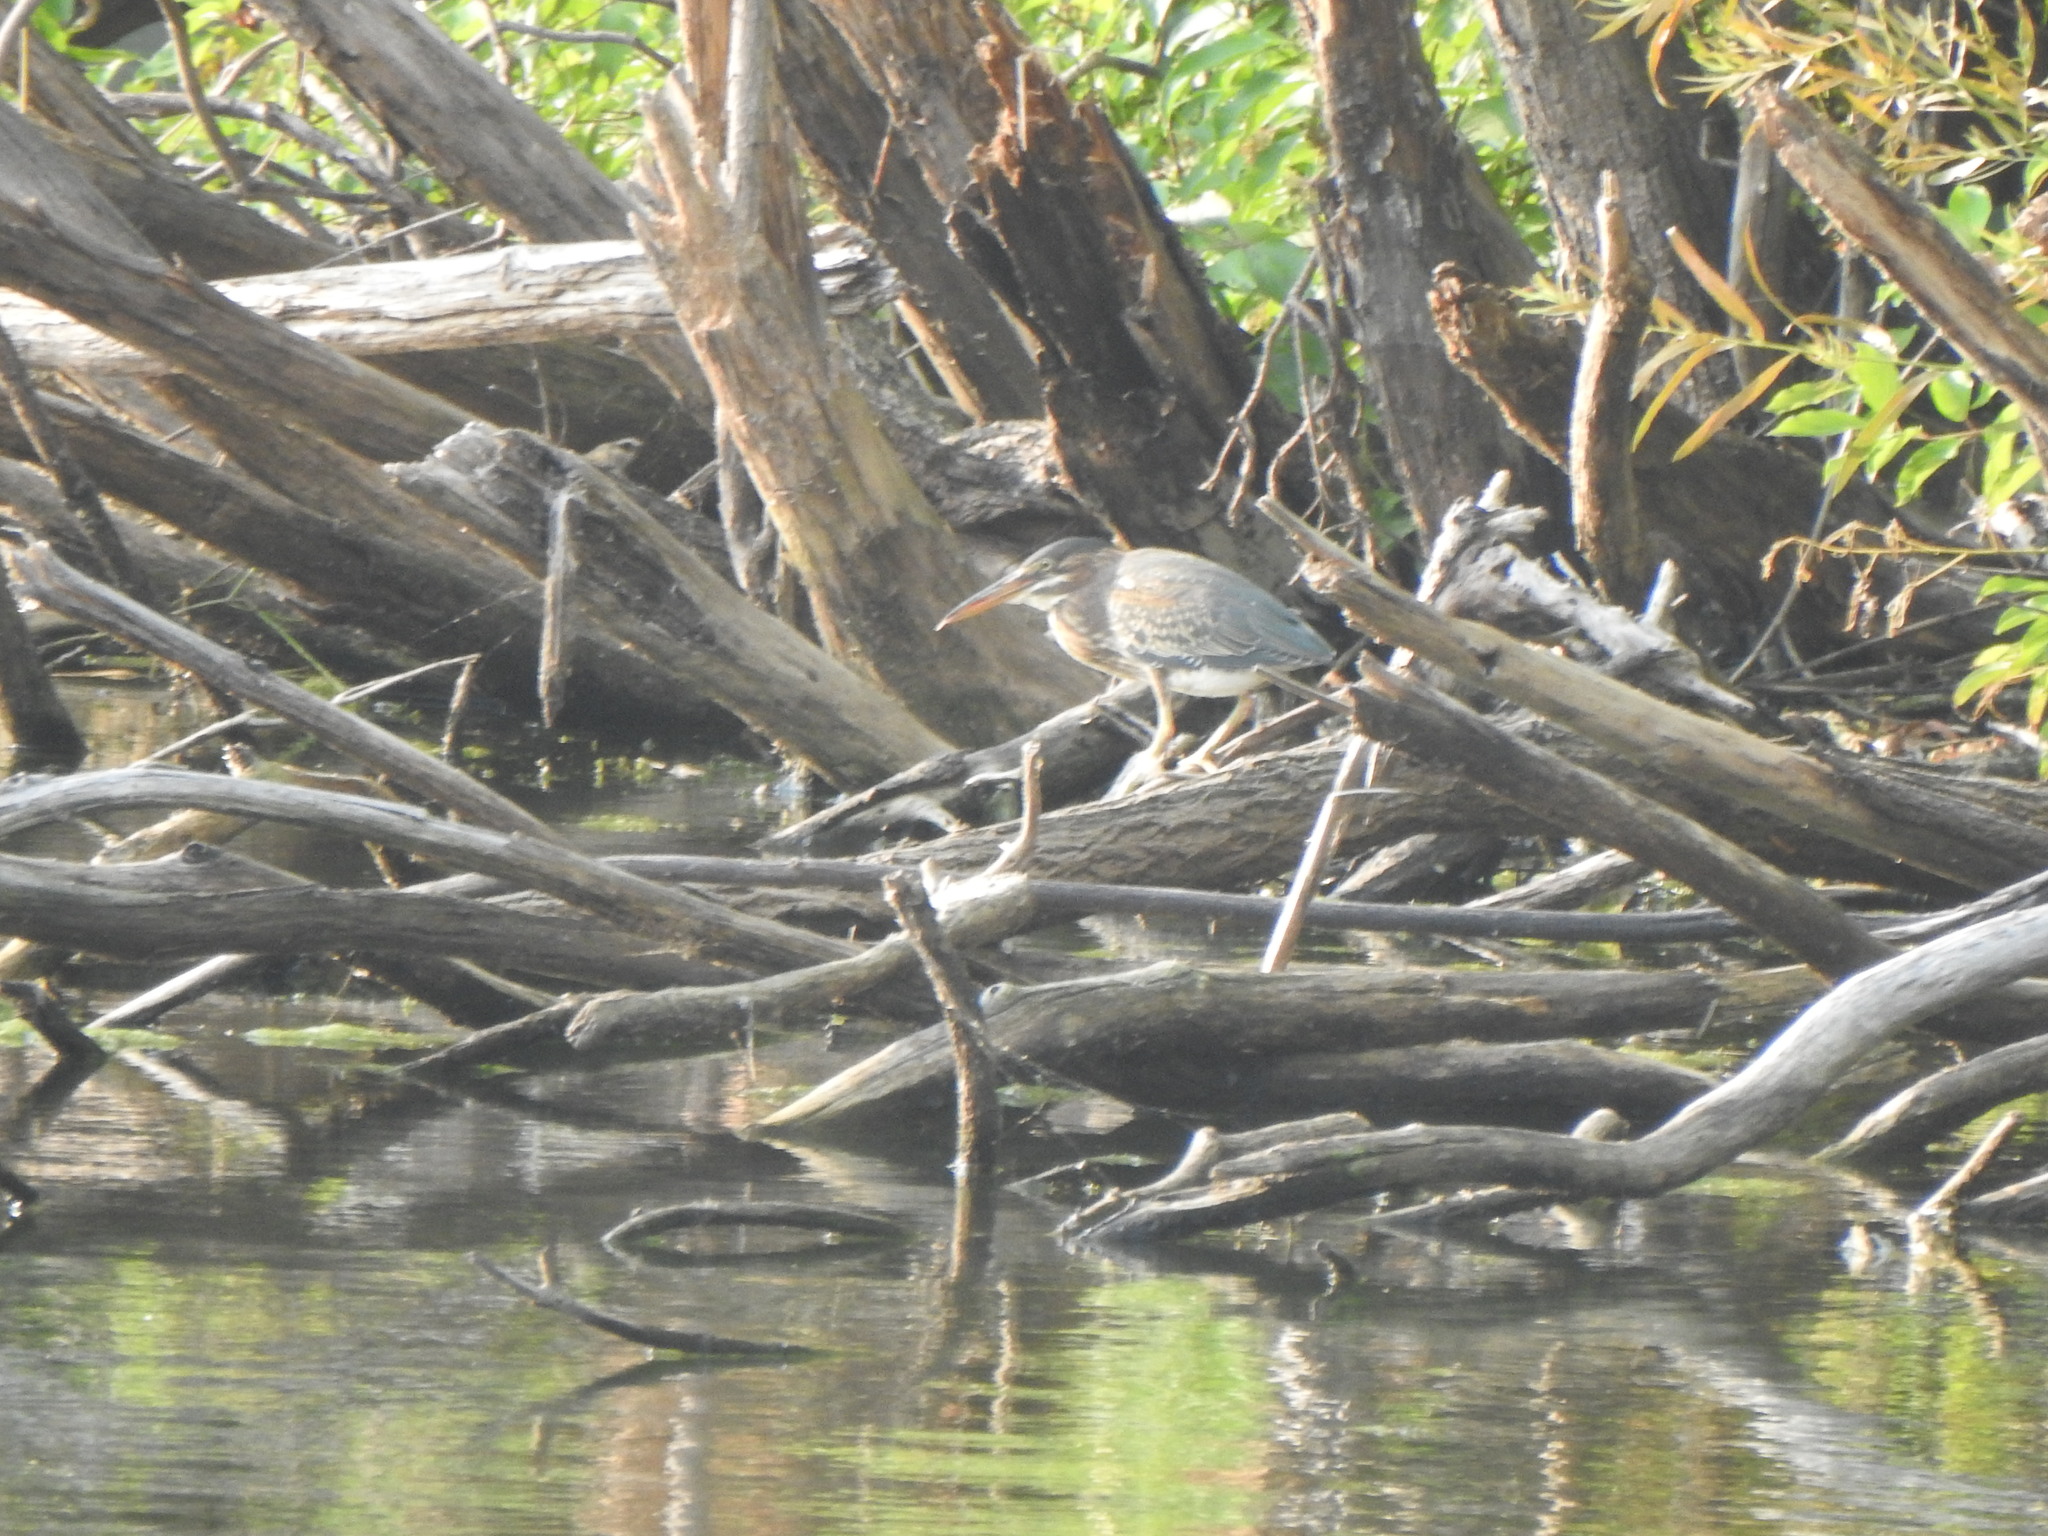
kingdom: Animalia
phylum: Chordata
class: Aves
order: Pelecaniformes
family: Ardeidae
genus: Butorides
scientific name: Butorides virescens
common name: Green heron
